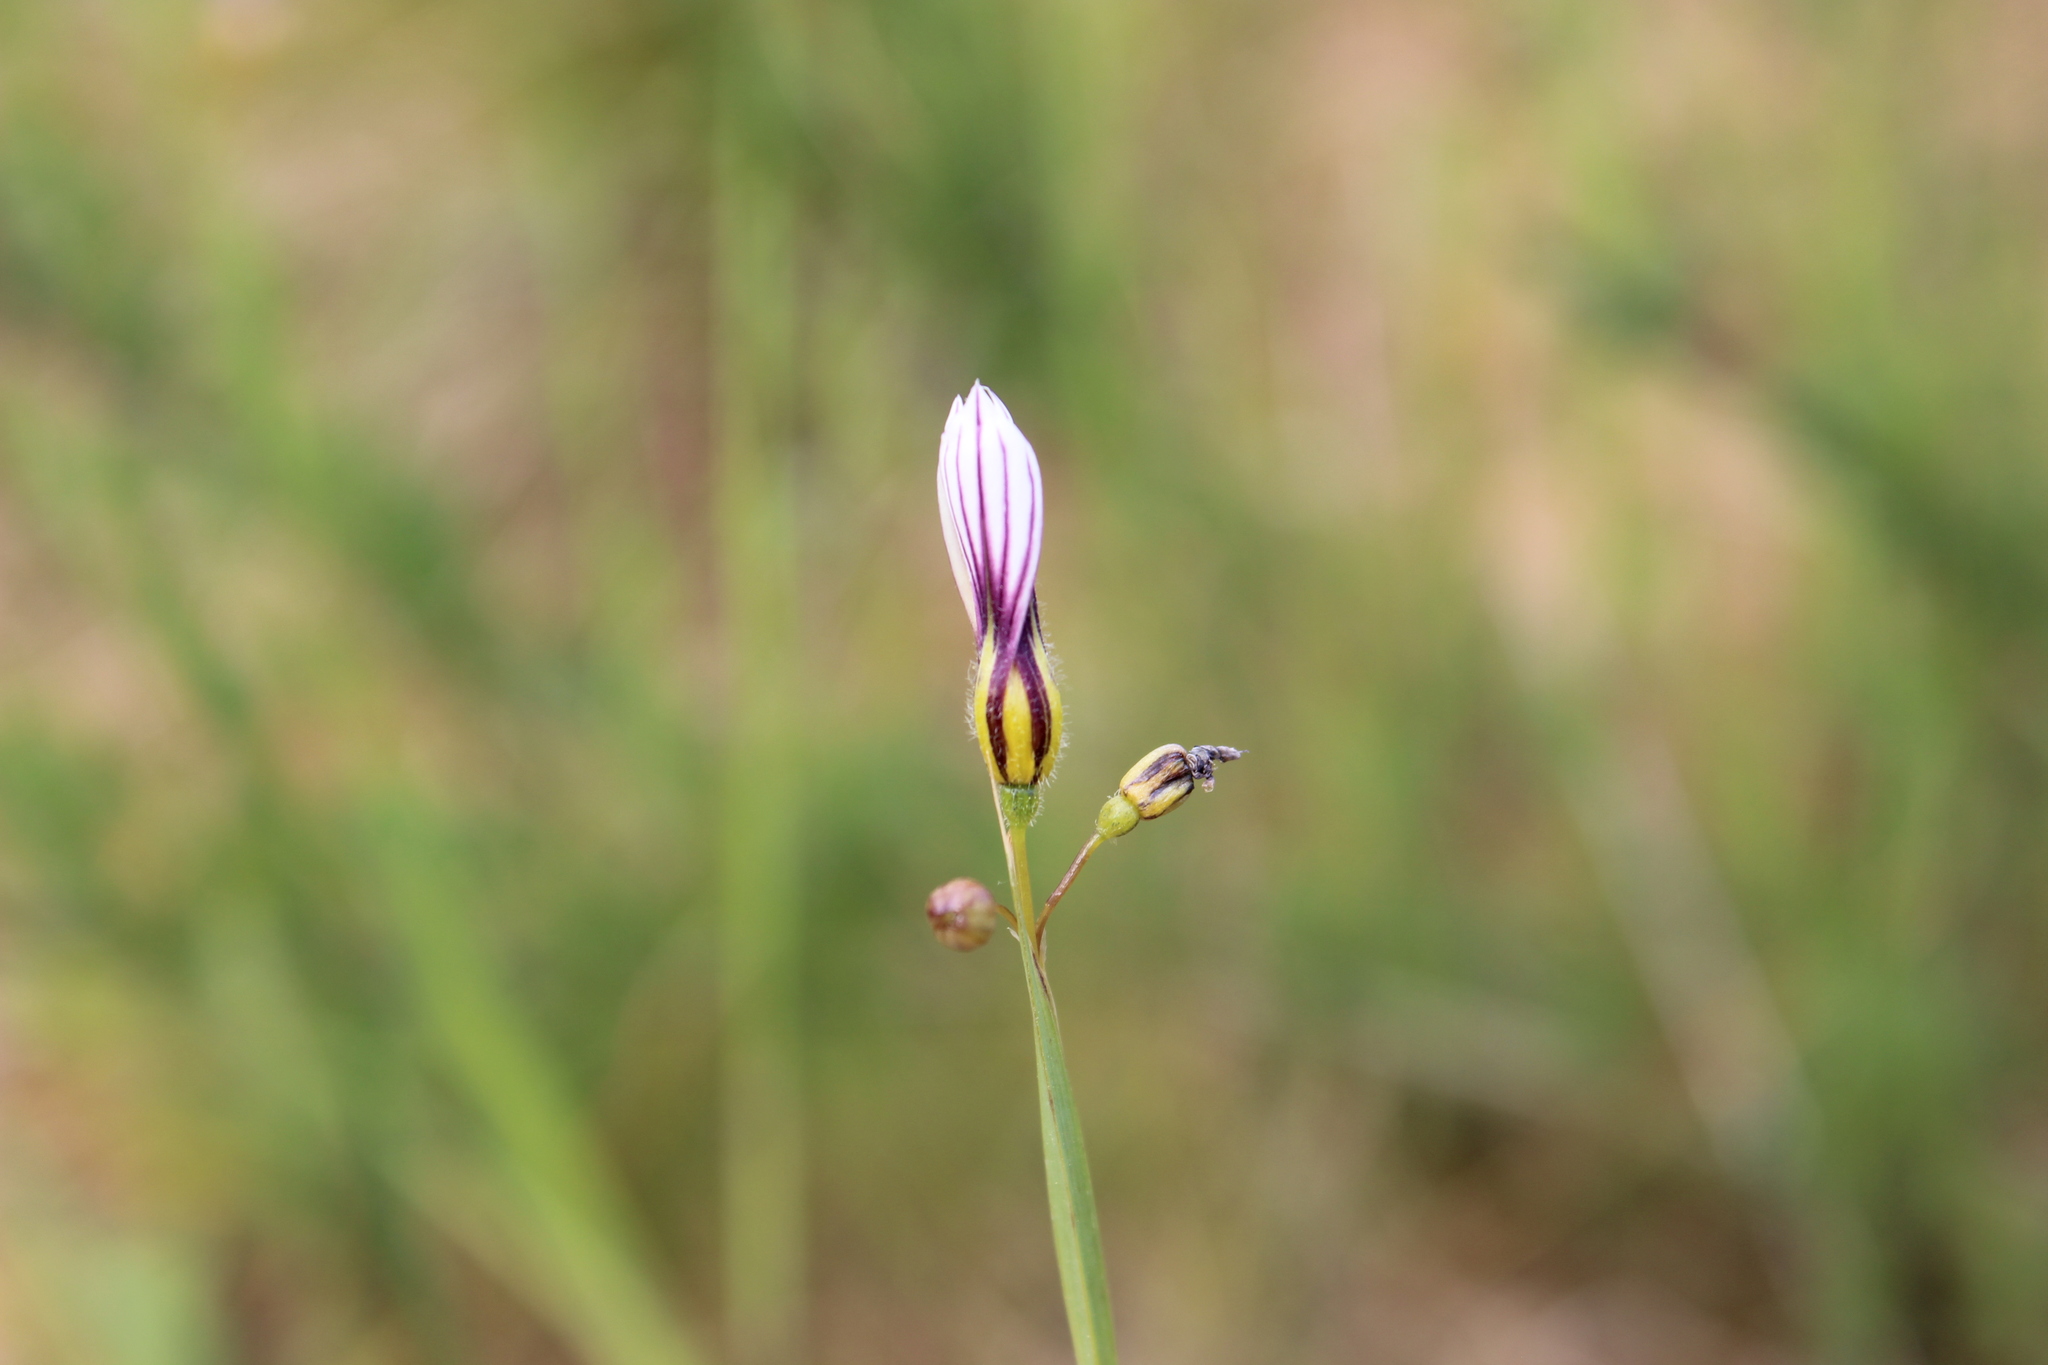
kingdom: Plantae
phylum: Tracheophyta
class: Liliopsida
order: Asparagales
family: Iridaceae
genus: Sisyrinchium
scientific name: Sisyrinchium micranthum
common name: Bermuda pigroot
